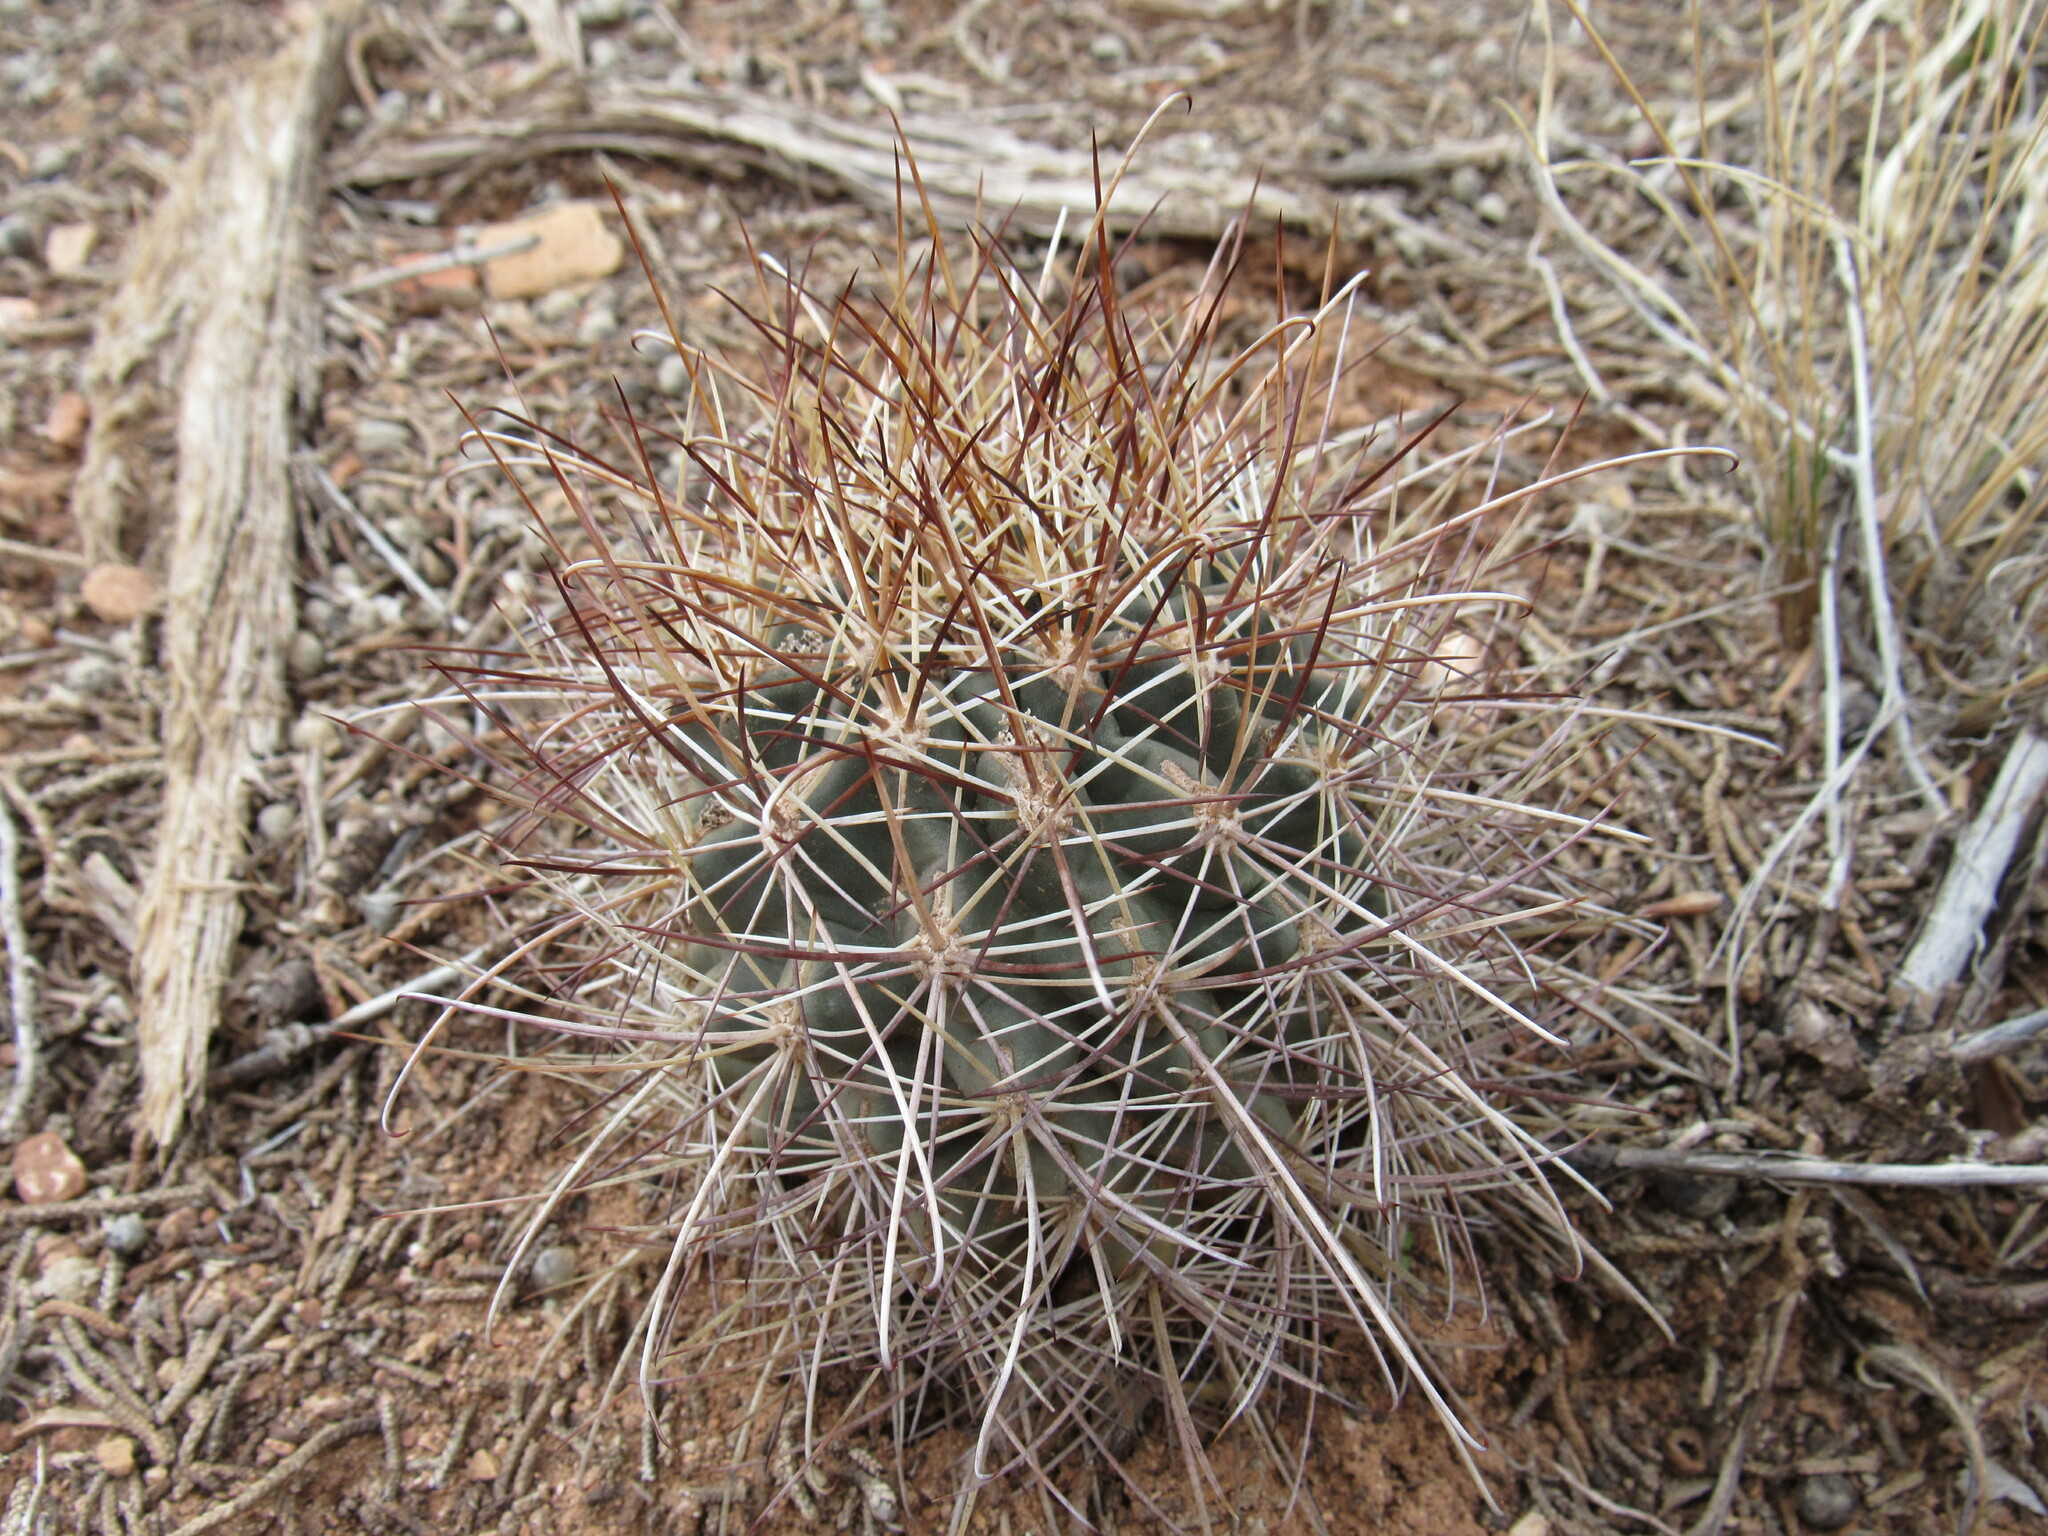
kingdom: Plantae
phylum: Tracheophyta
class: Magnoliopsida
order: Caryophyllales
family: Cactaceae
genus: Sclerocactus
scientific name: Sclerocactus parviflorus
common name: Small-flower fishhook cactus
